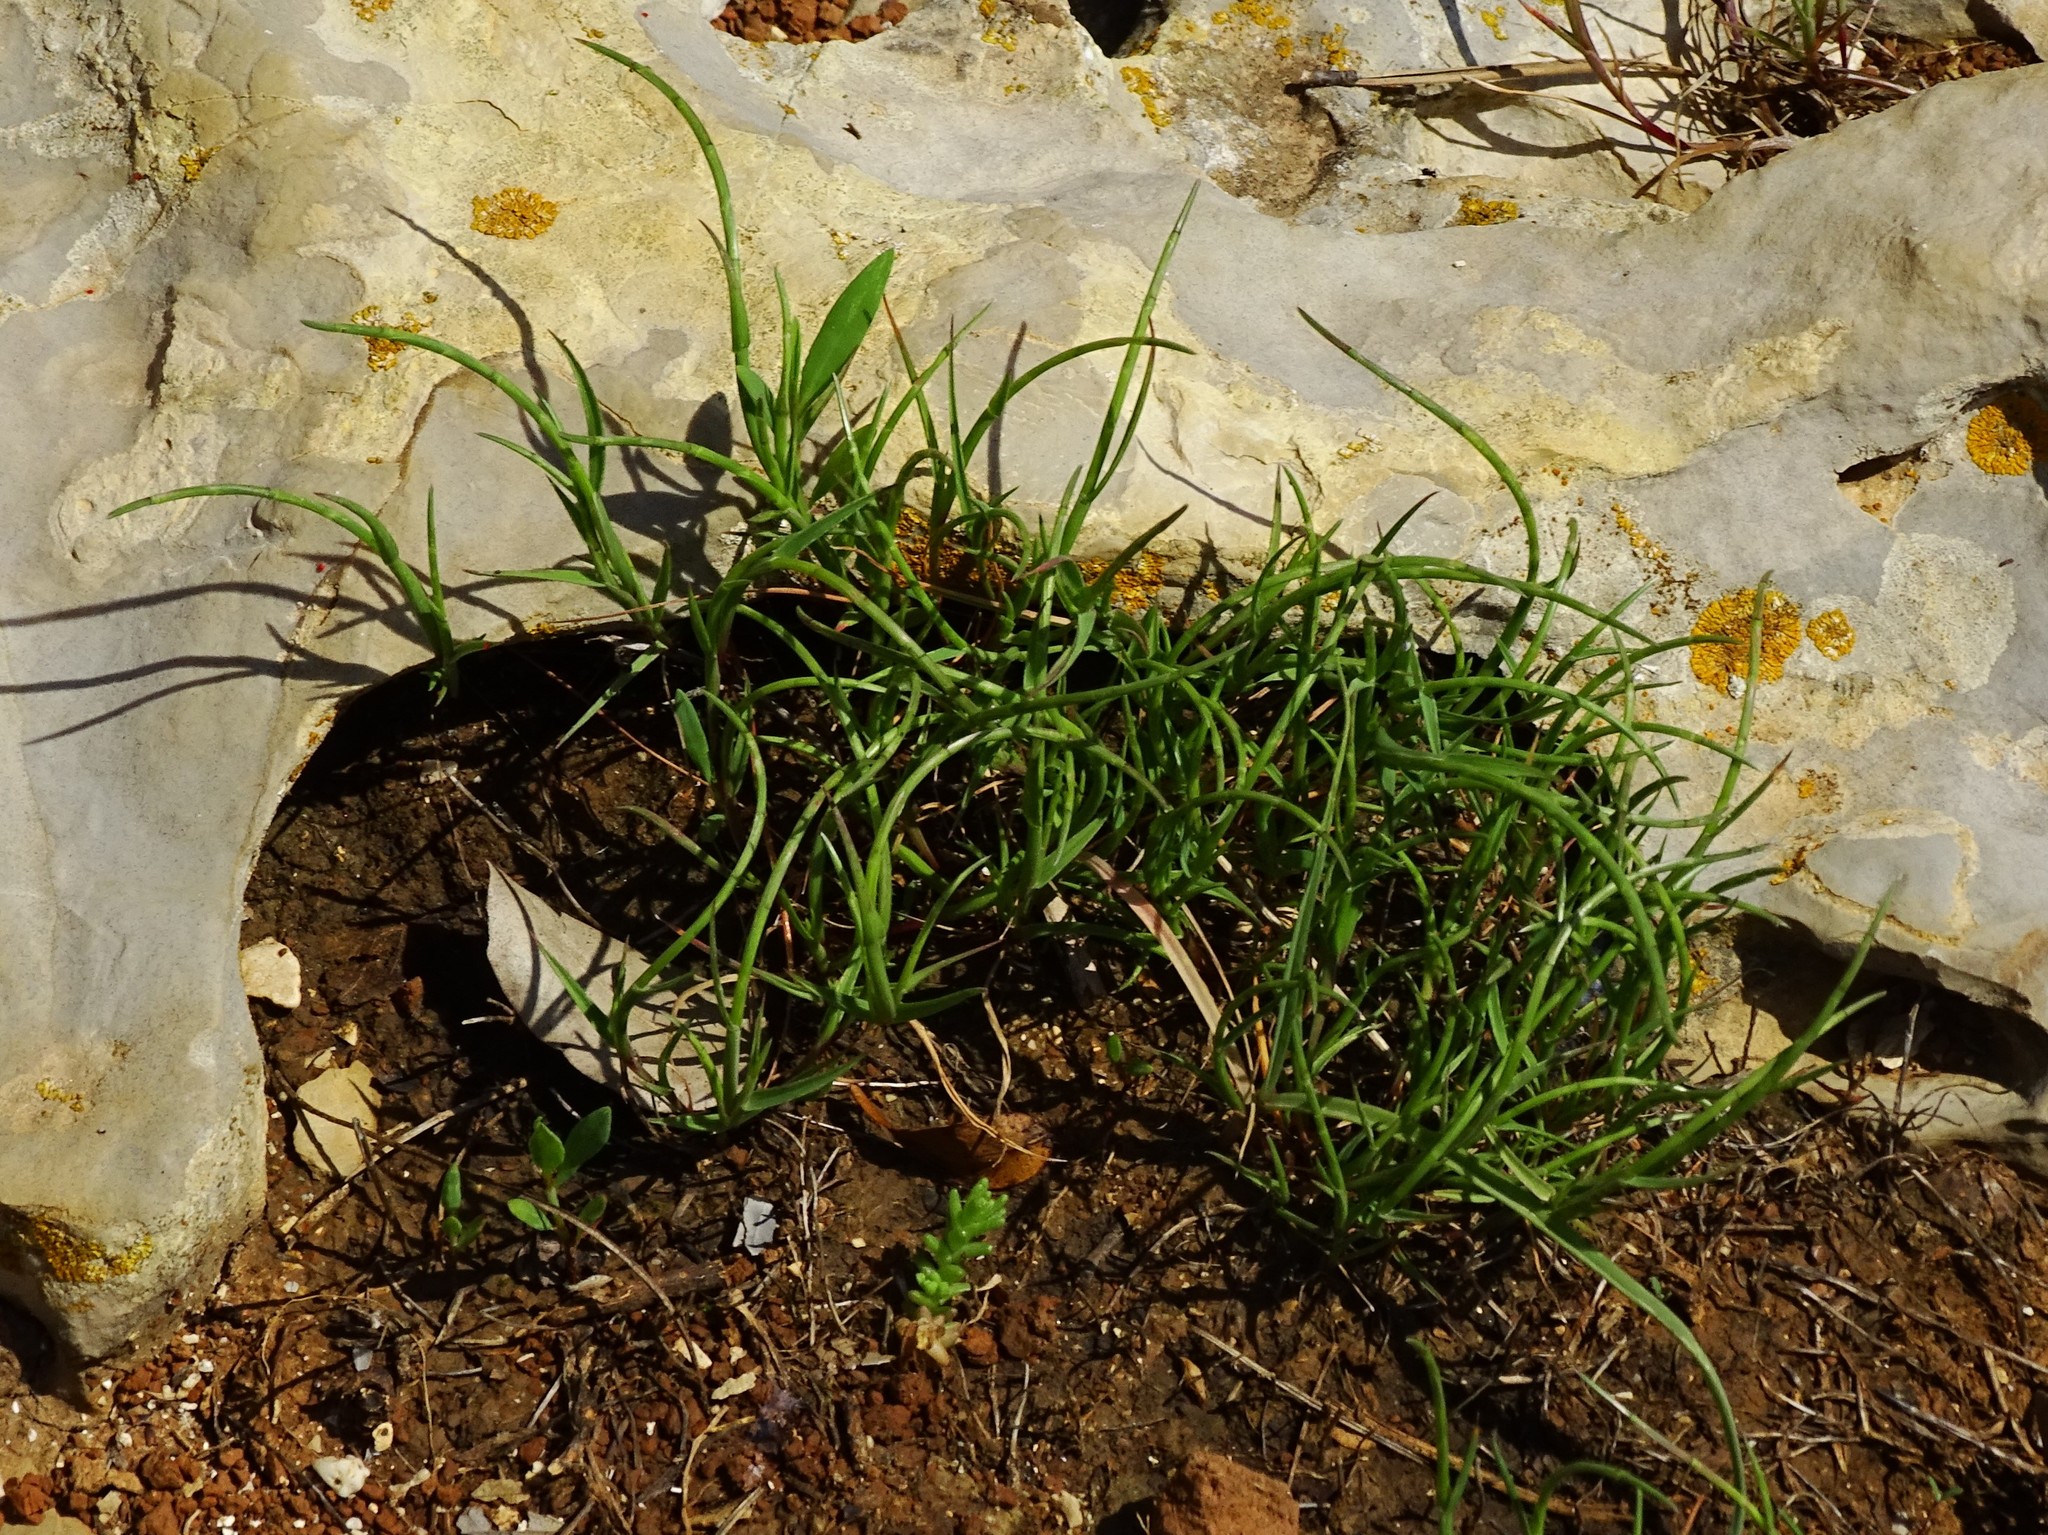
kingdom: Plantae
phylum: Tracheophyta
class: Liliopsida
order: Poales
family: Poaceae
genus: Parapholis
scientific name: Parapholis incurva
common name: Curved sicklegrass
